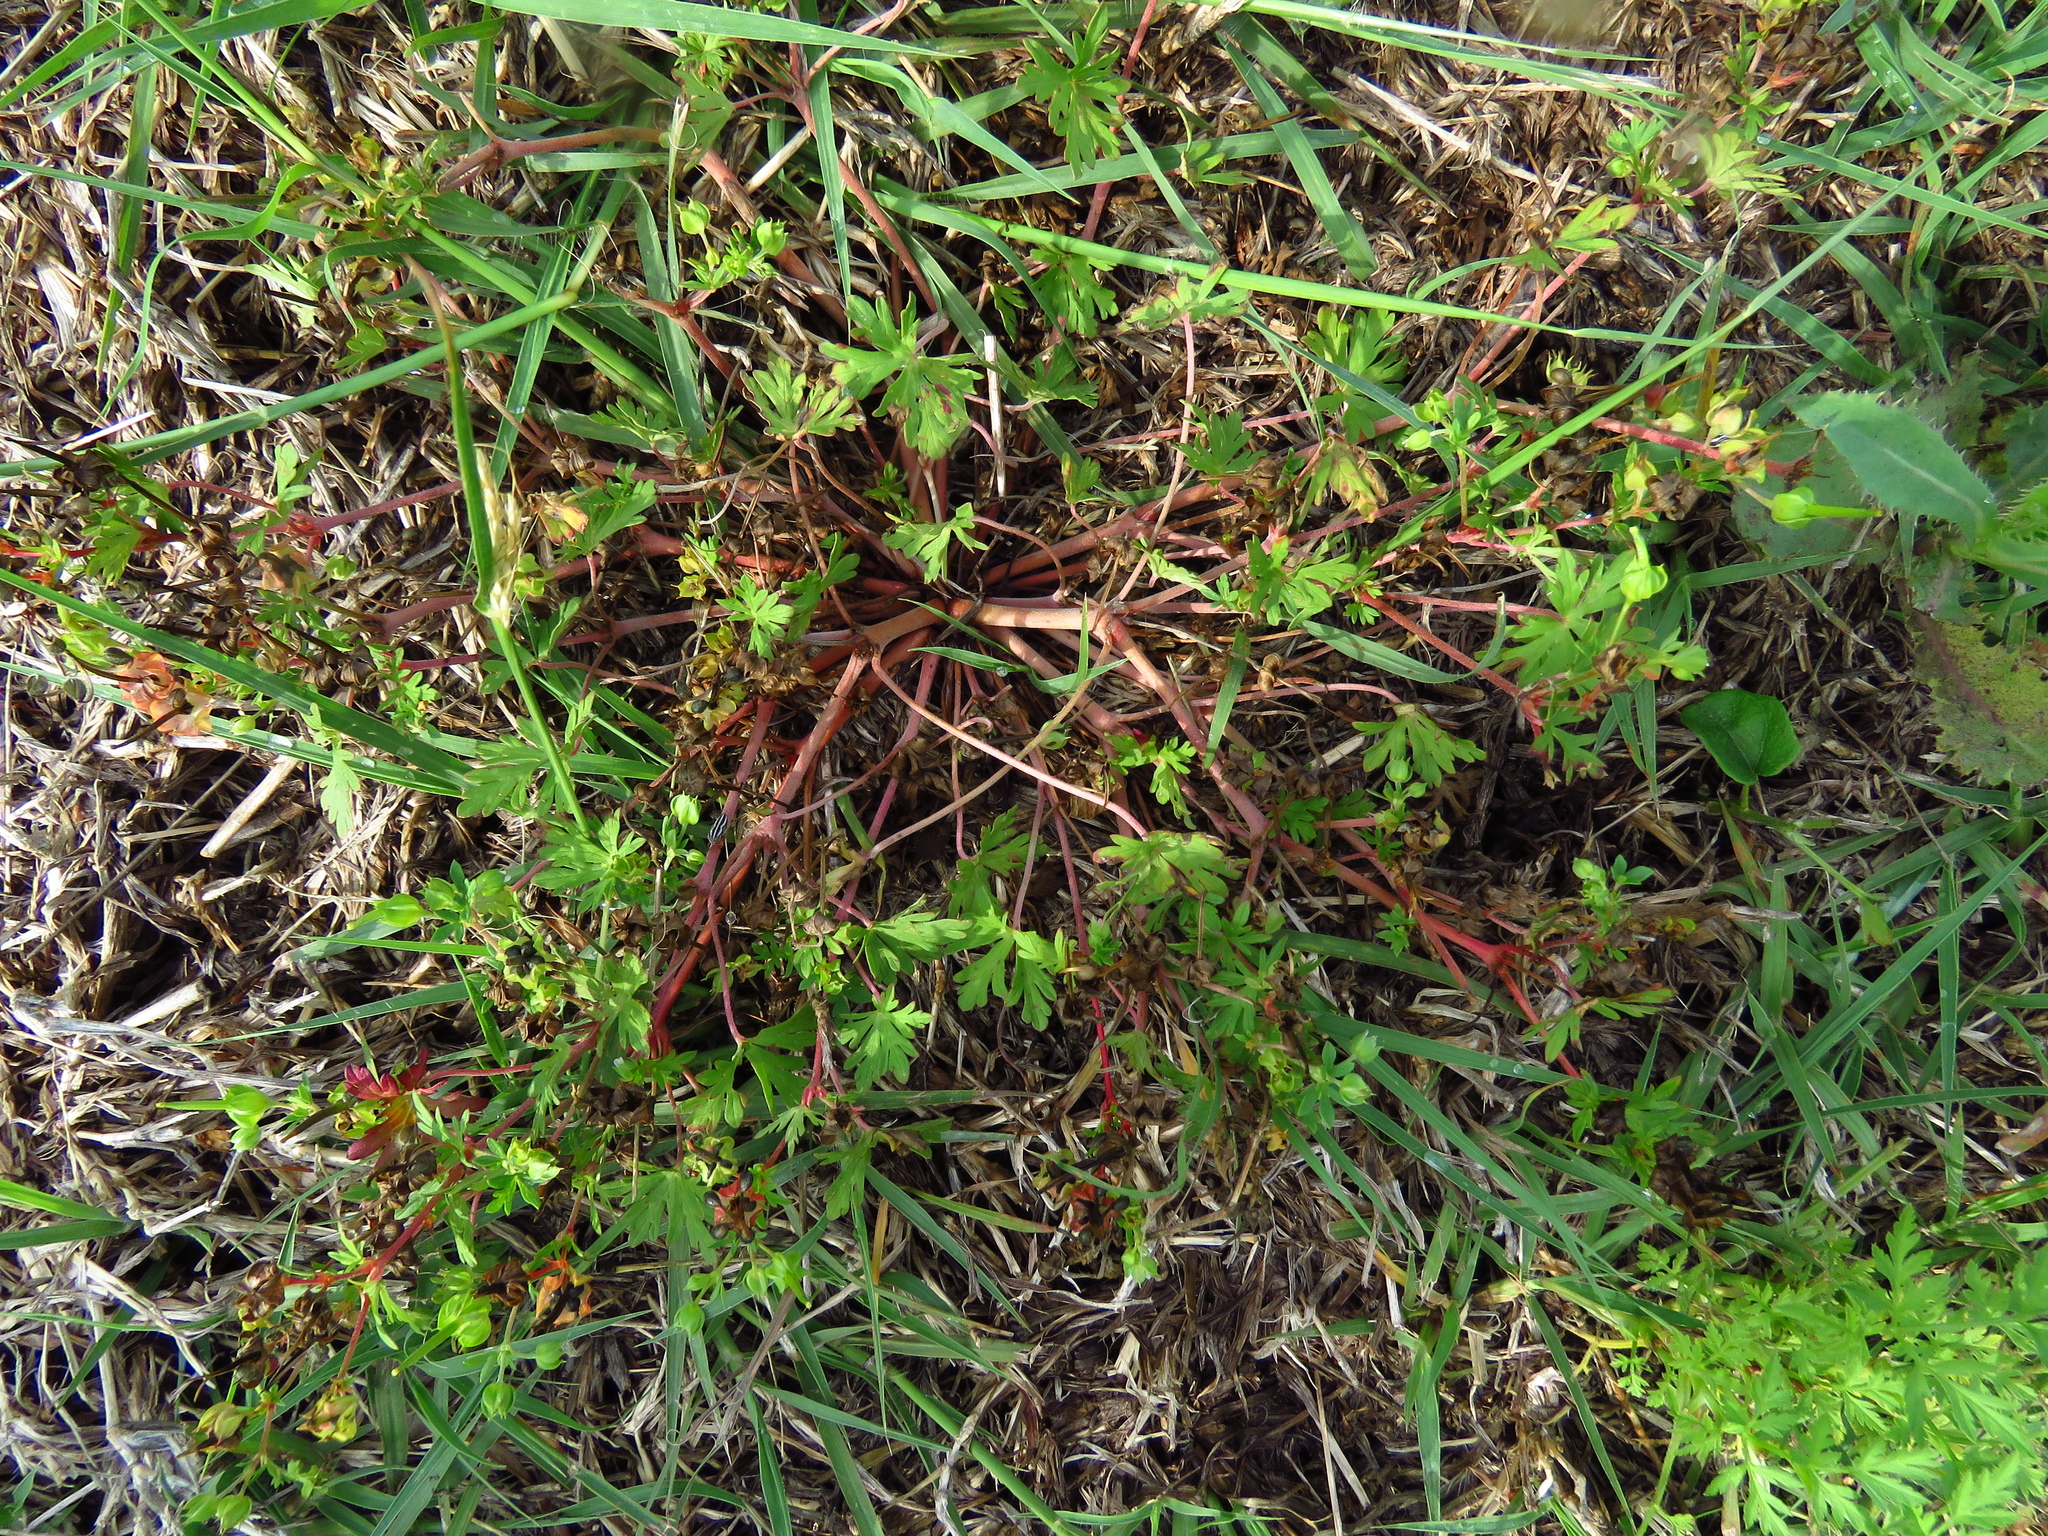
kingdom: Plantae
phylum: Tracheophyta
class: Magnoliopsida
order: Geraniales
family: Geraniaceae
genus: Geranium
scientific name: Geranium carolinianum
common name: Carolina crane's-bill
